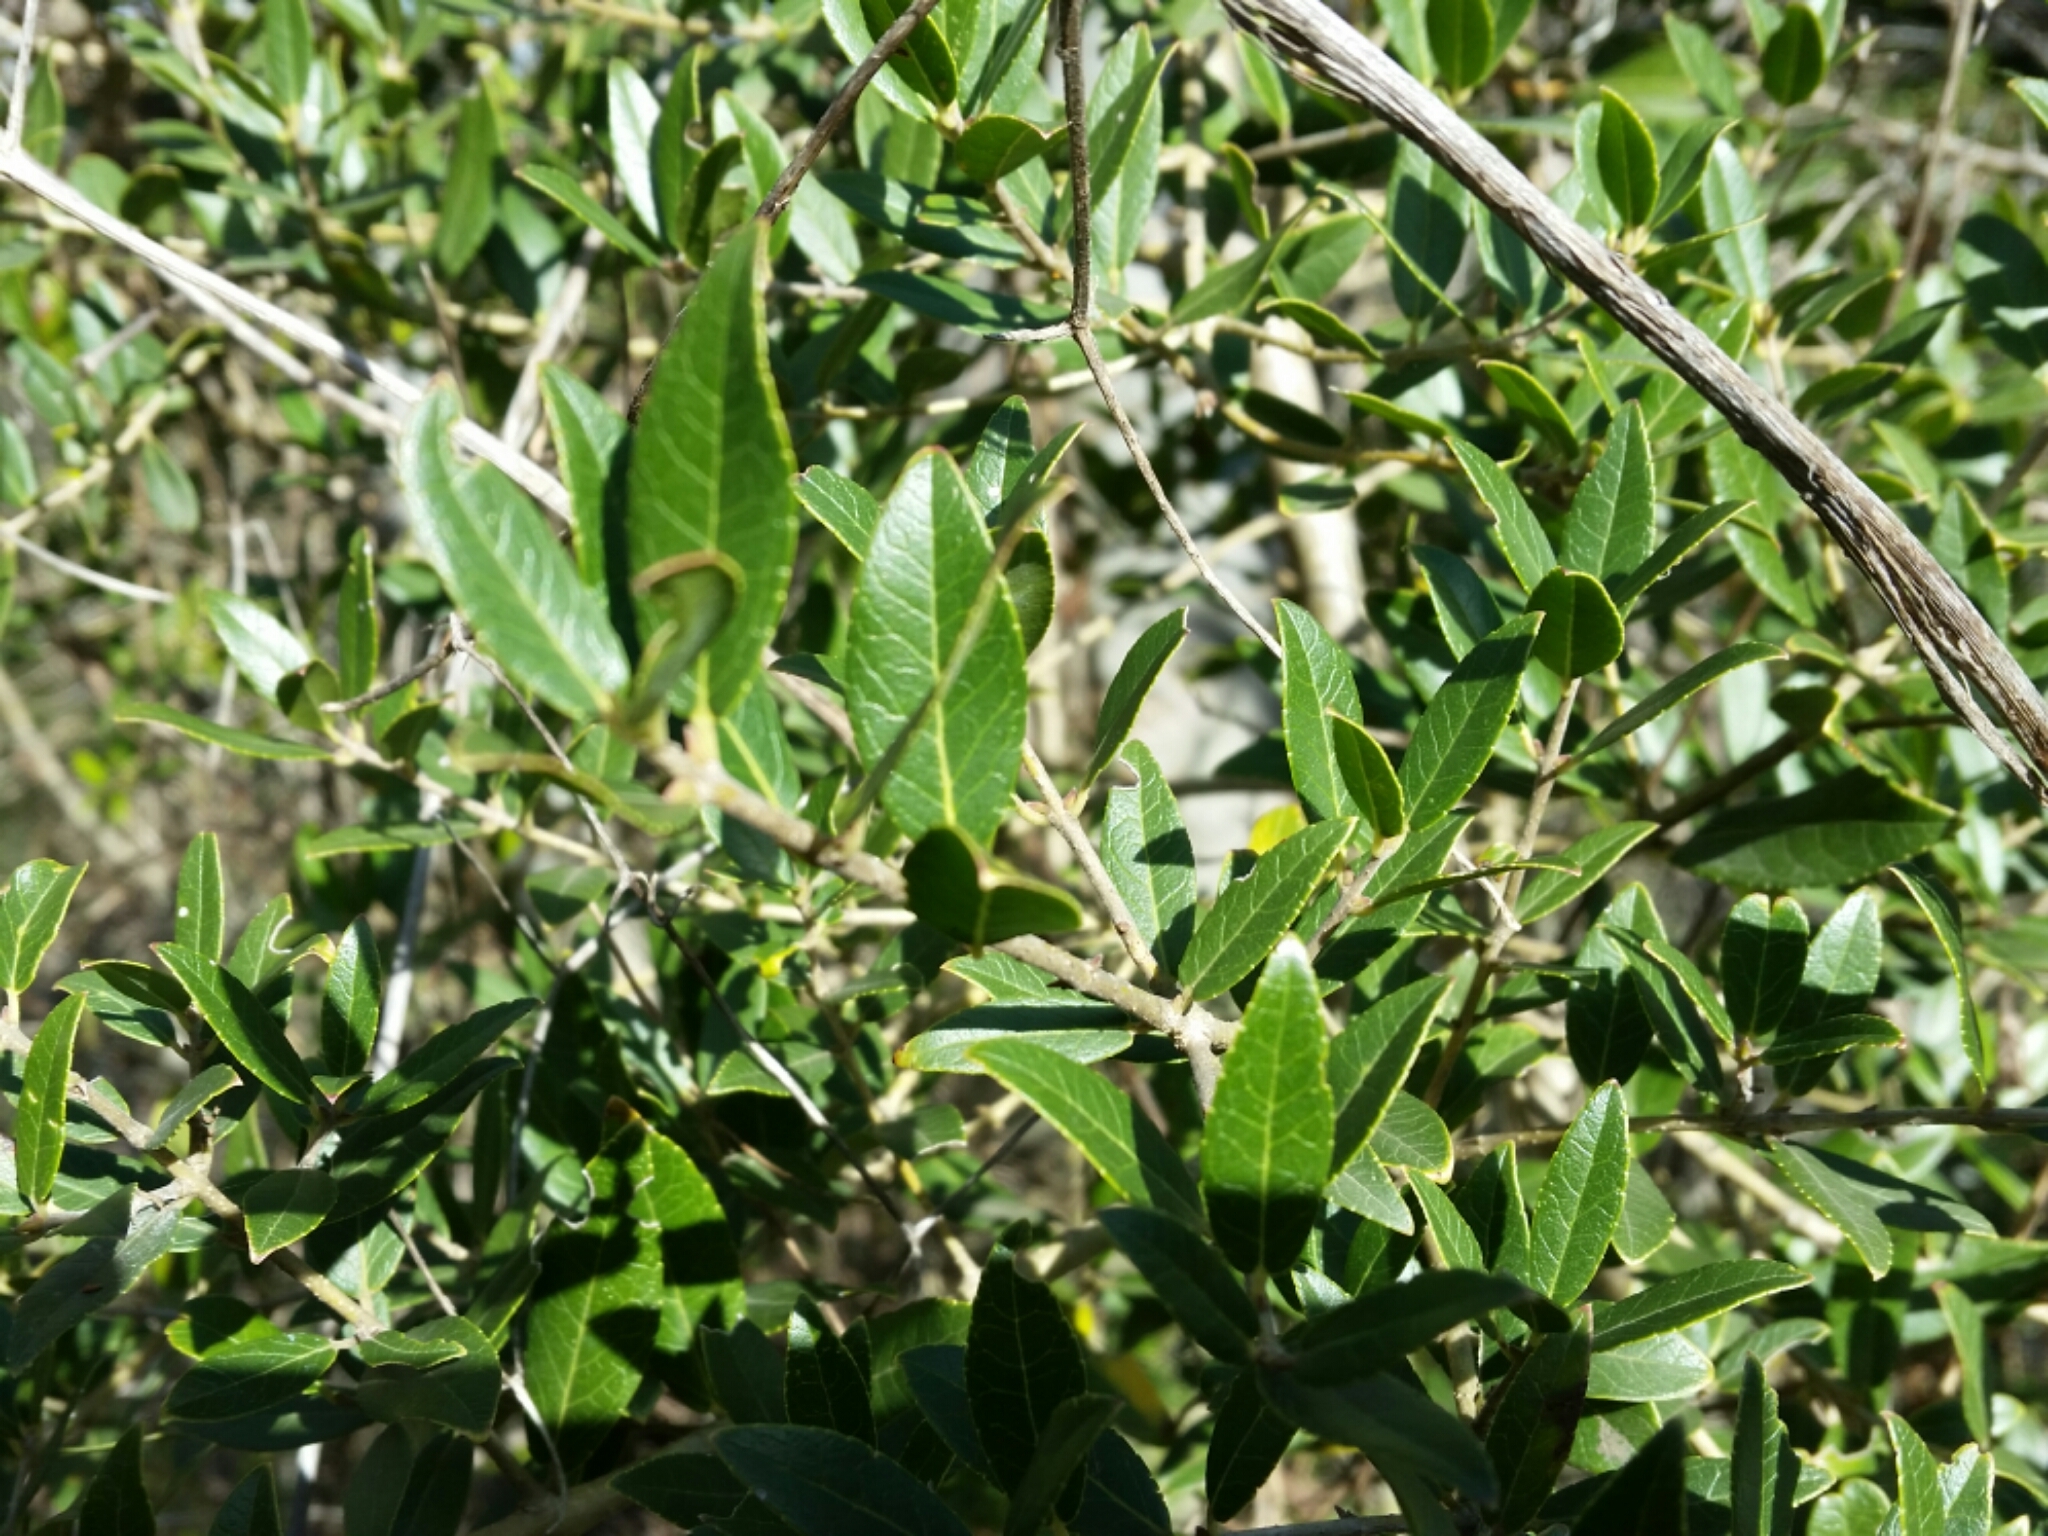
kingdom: Plantae
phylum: Tracheophyta
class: Magnoliopsida
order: Lamiales
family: Oleaceae
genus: Phillyrea
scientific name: Phillyrea latifolia
